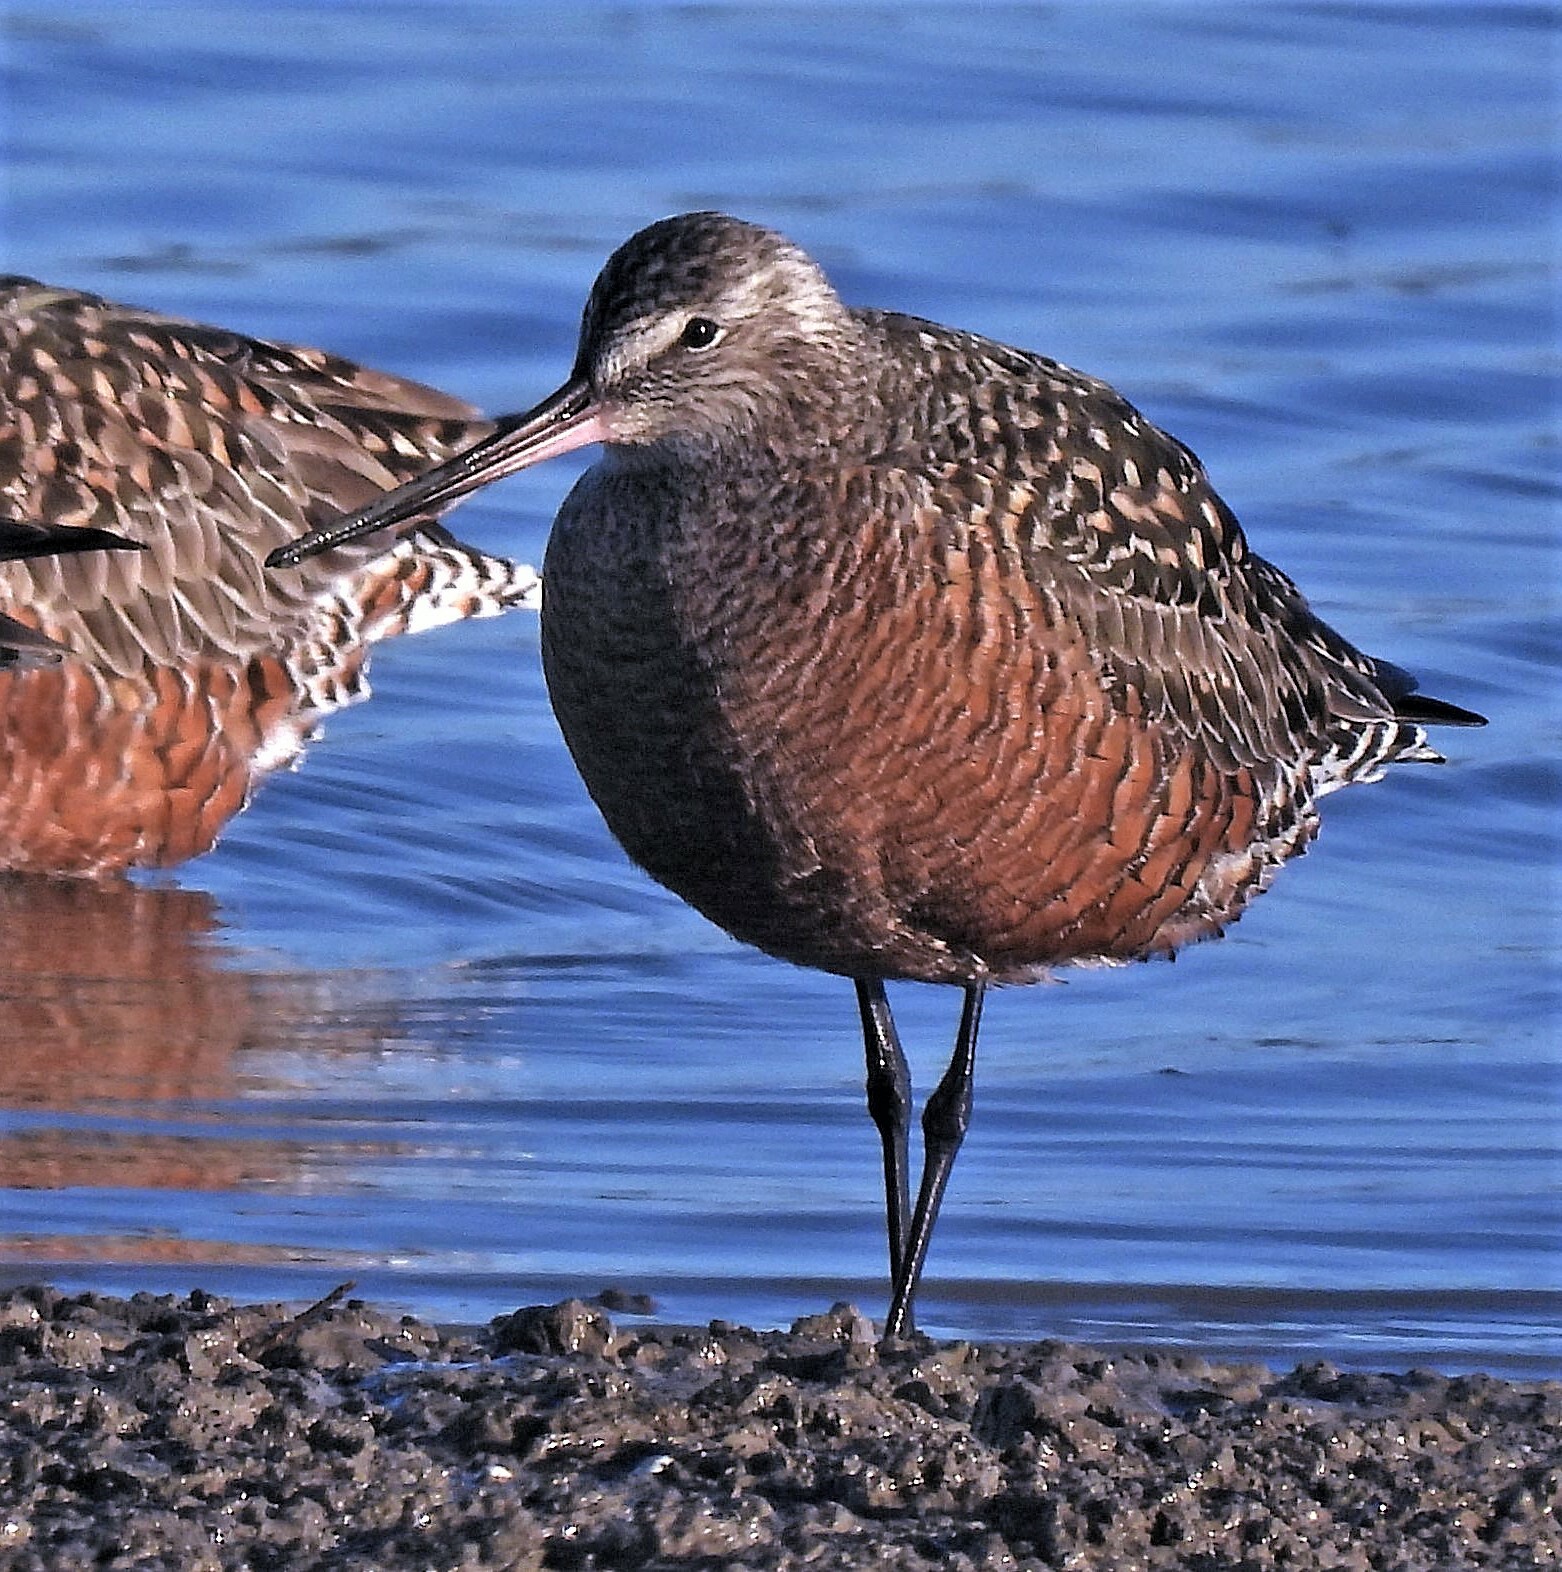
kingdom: Animalia
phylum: Chordata
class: Aves
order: Charadriiformes
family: Scolopacidae
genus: Limosa
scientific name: Limosa haemastica
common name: Hudsonian godwit
